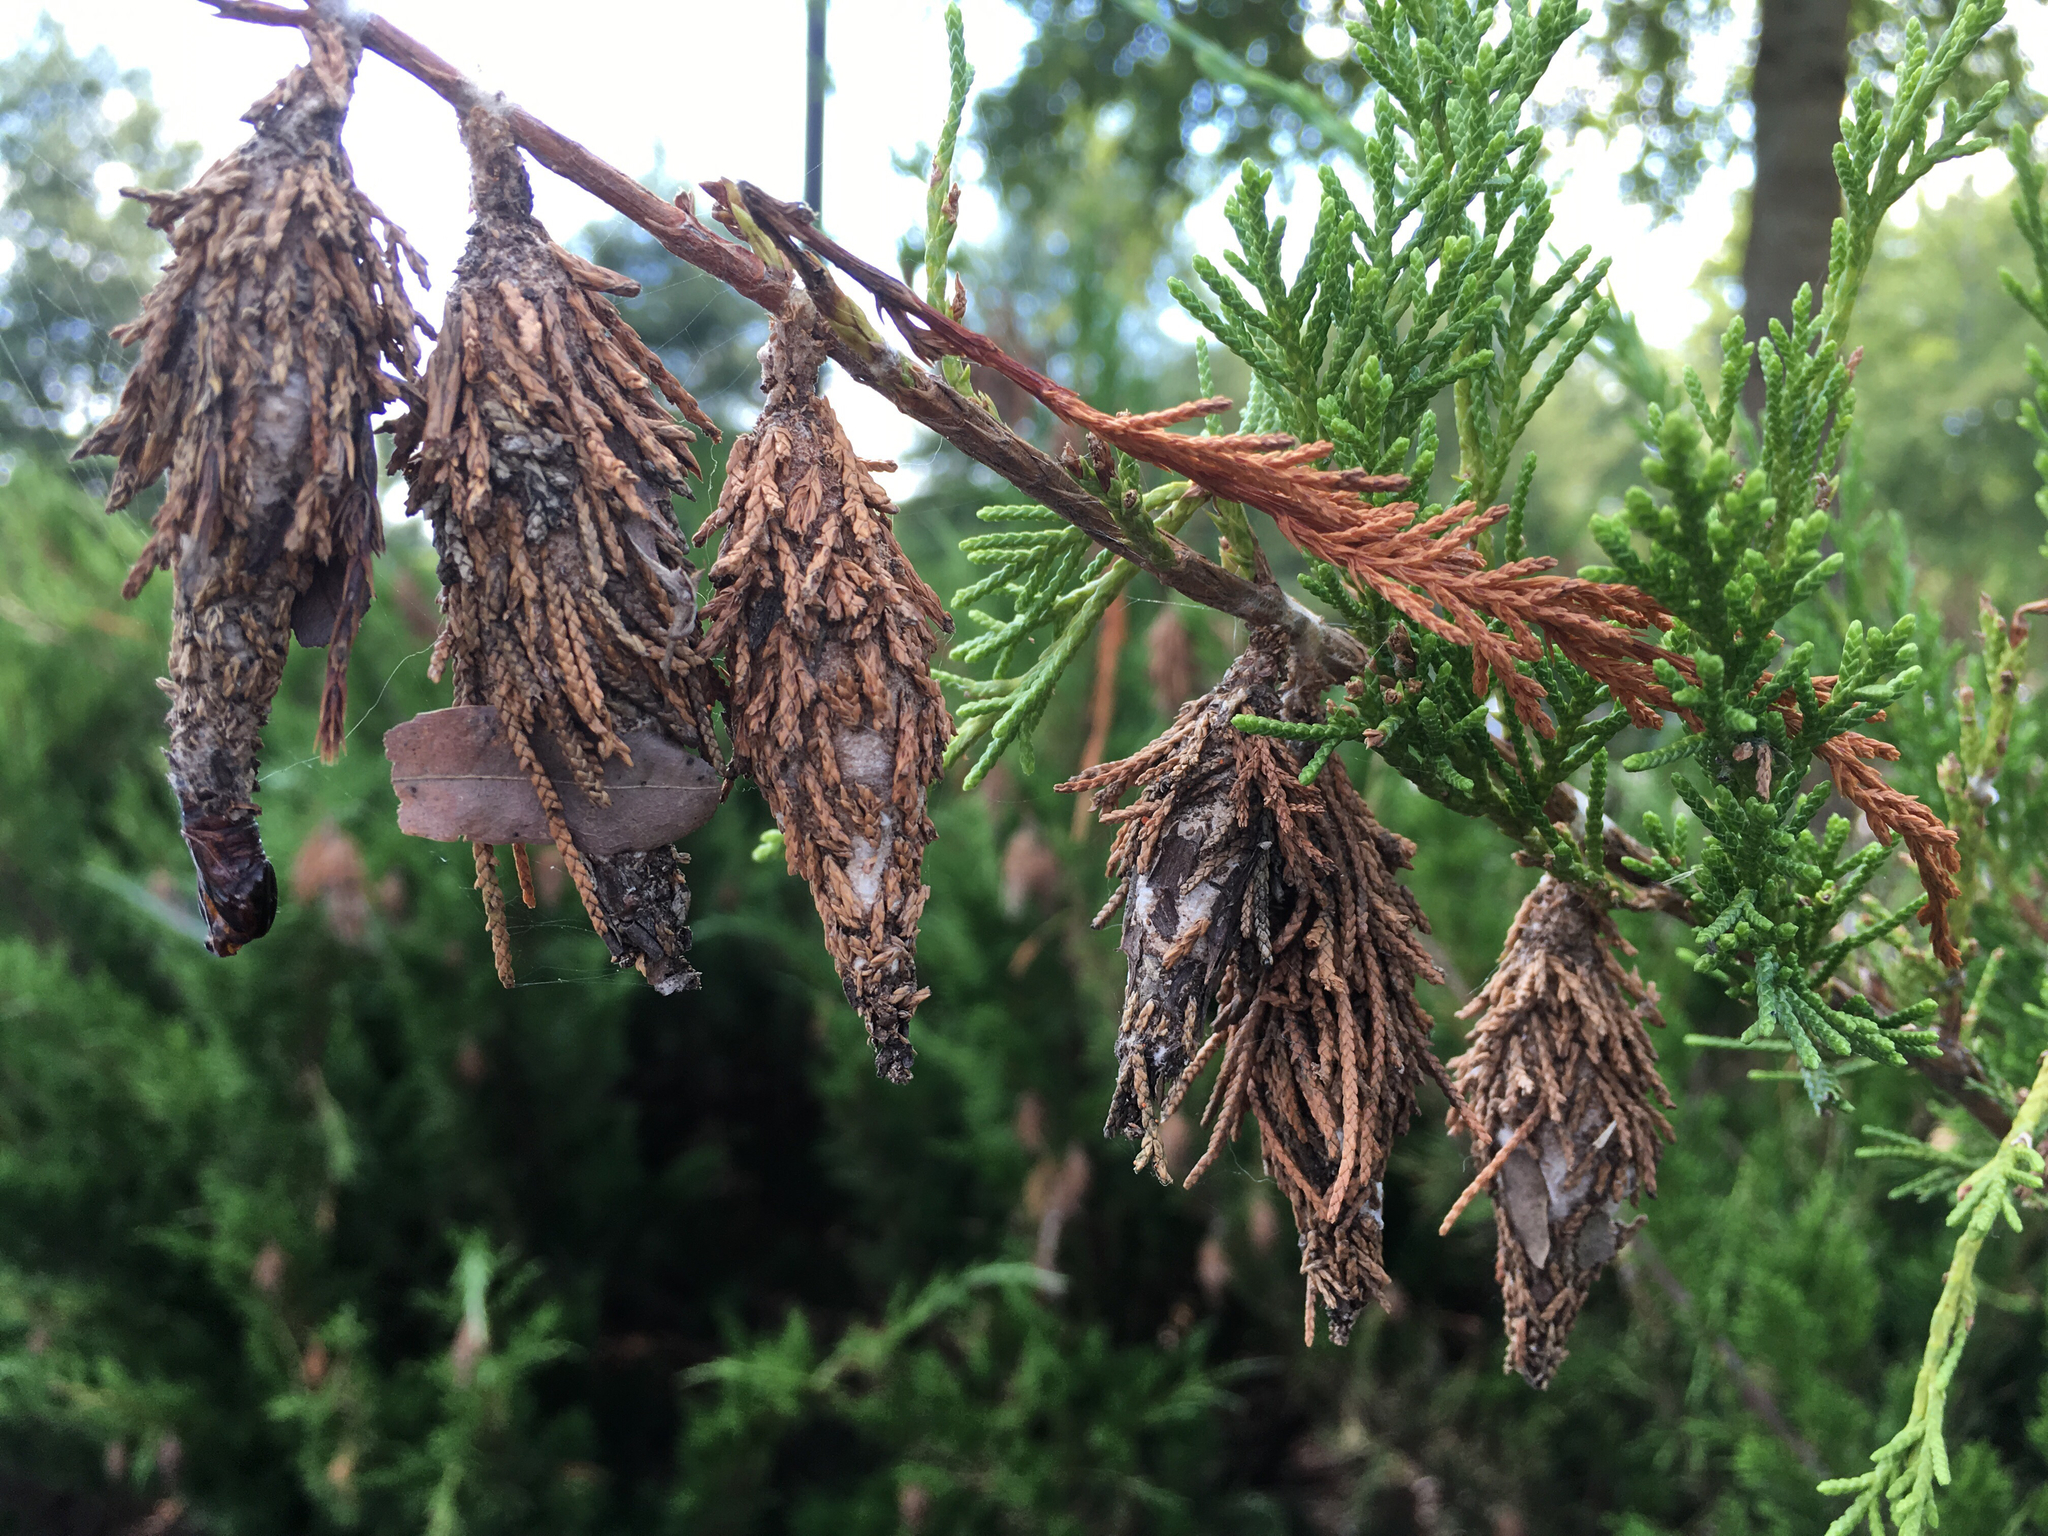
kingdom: Animalia
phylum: Arthropoda
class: Insecta
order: Lepidoptera
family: Psychidae
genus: Thyridopteryx
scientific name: Thyridopteryx ephemeraeformis
